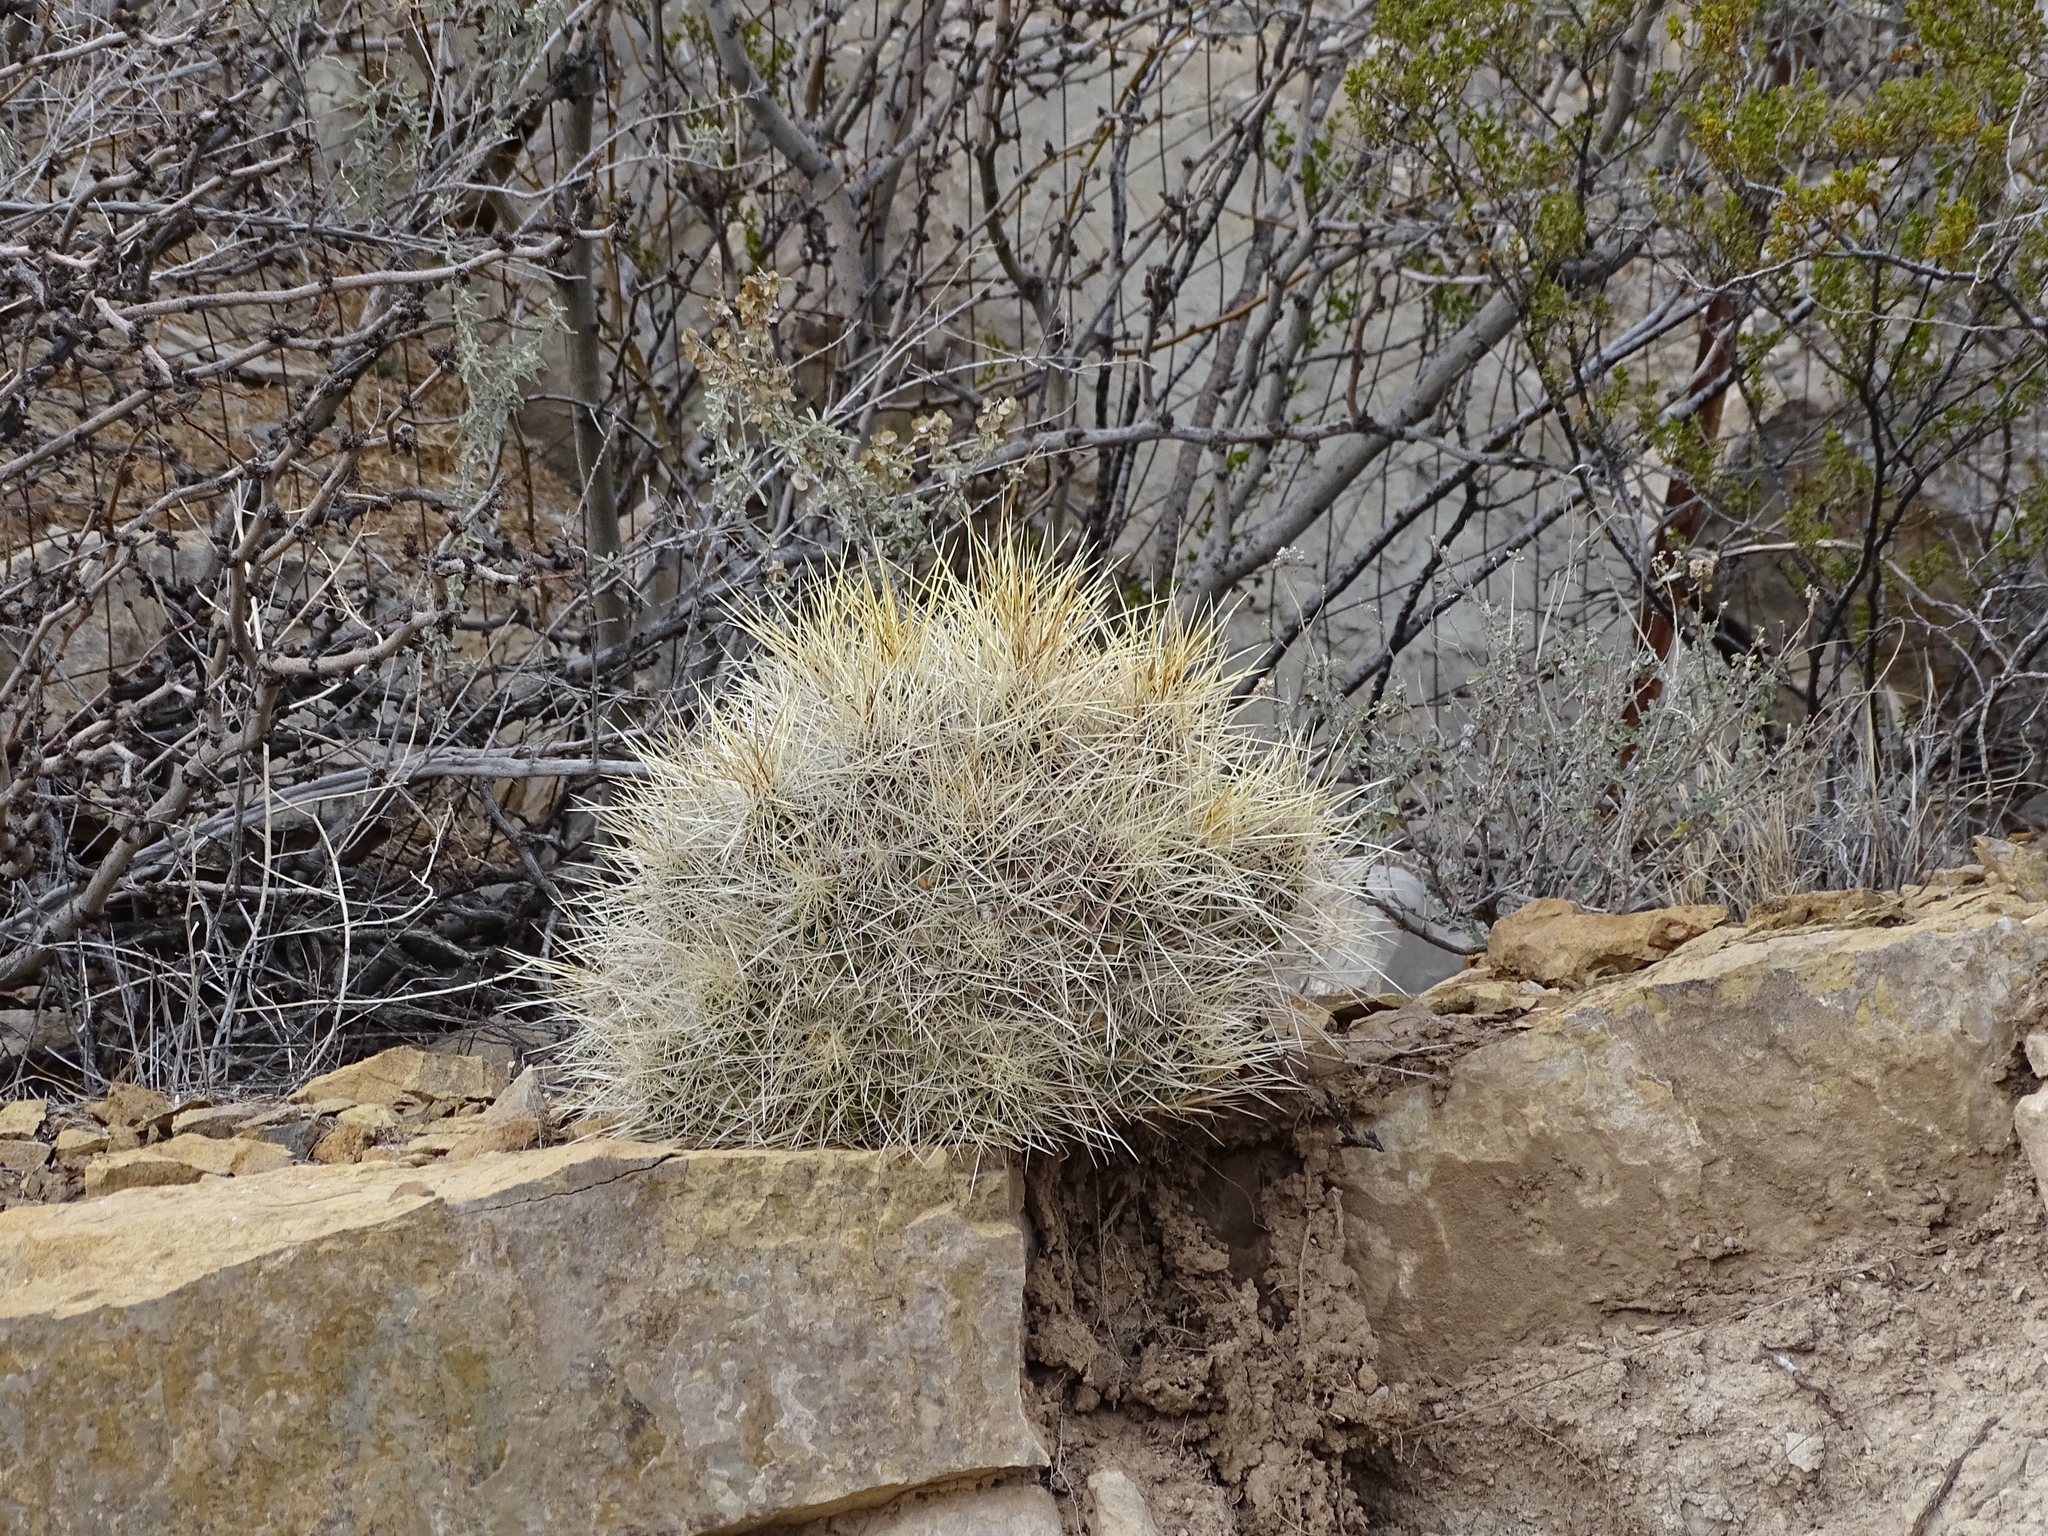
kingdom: Plantae
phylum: Tracheophyta
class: Magnoliopsida
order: Caryophyllales
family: Cactaceae
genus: Echinocereus
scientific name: Echinocereus stramineus
